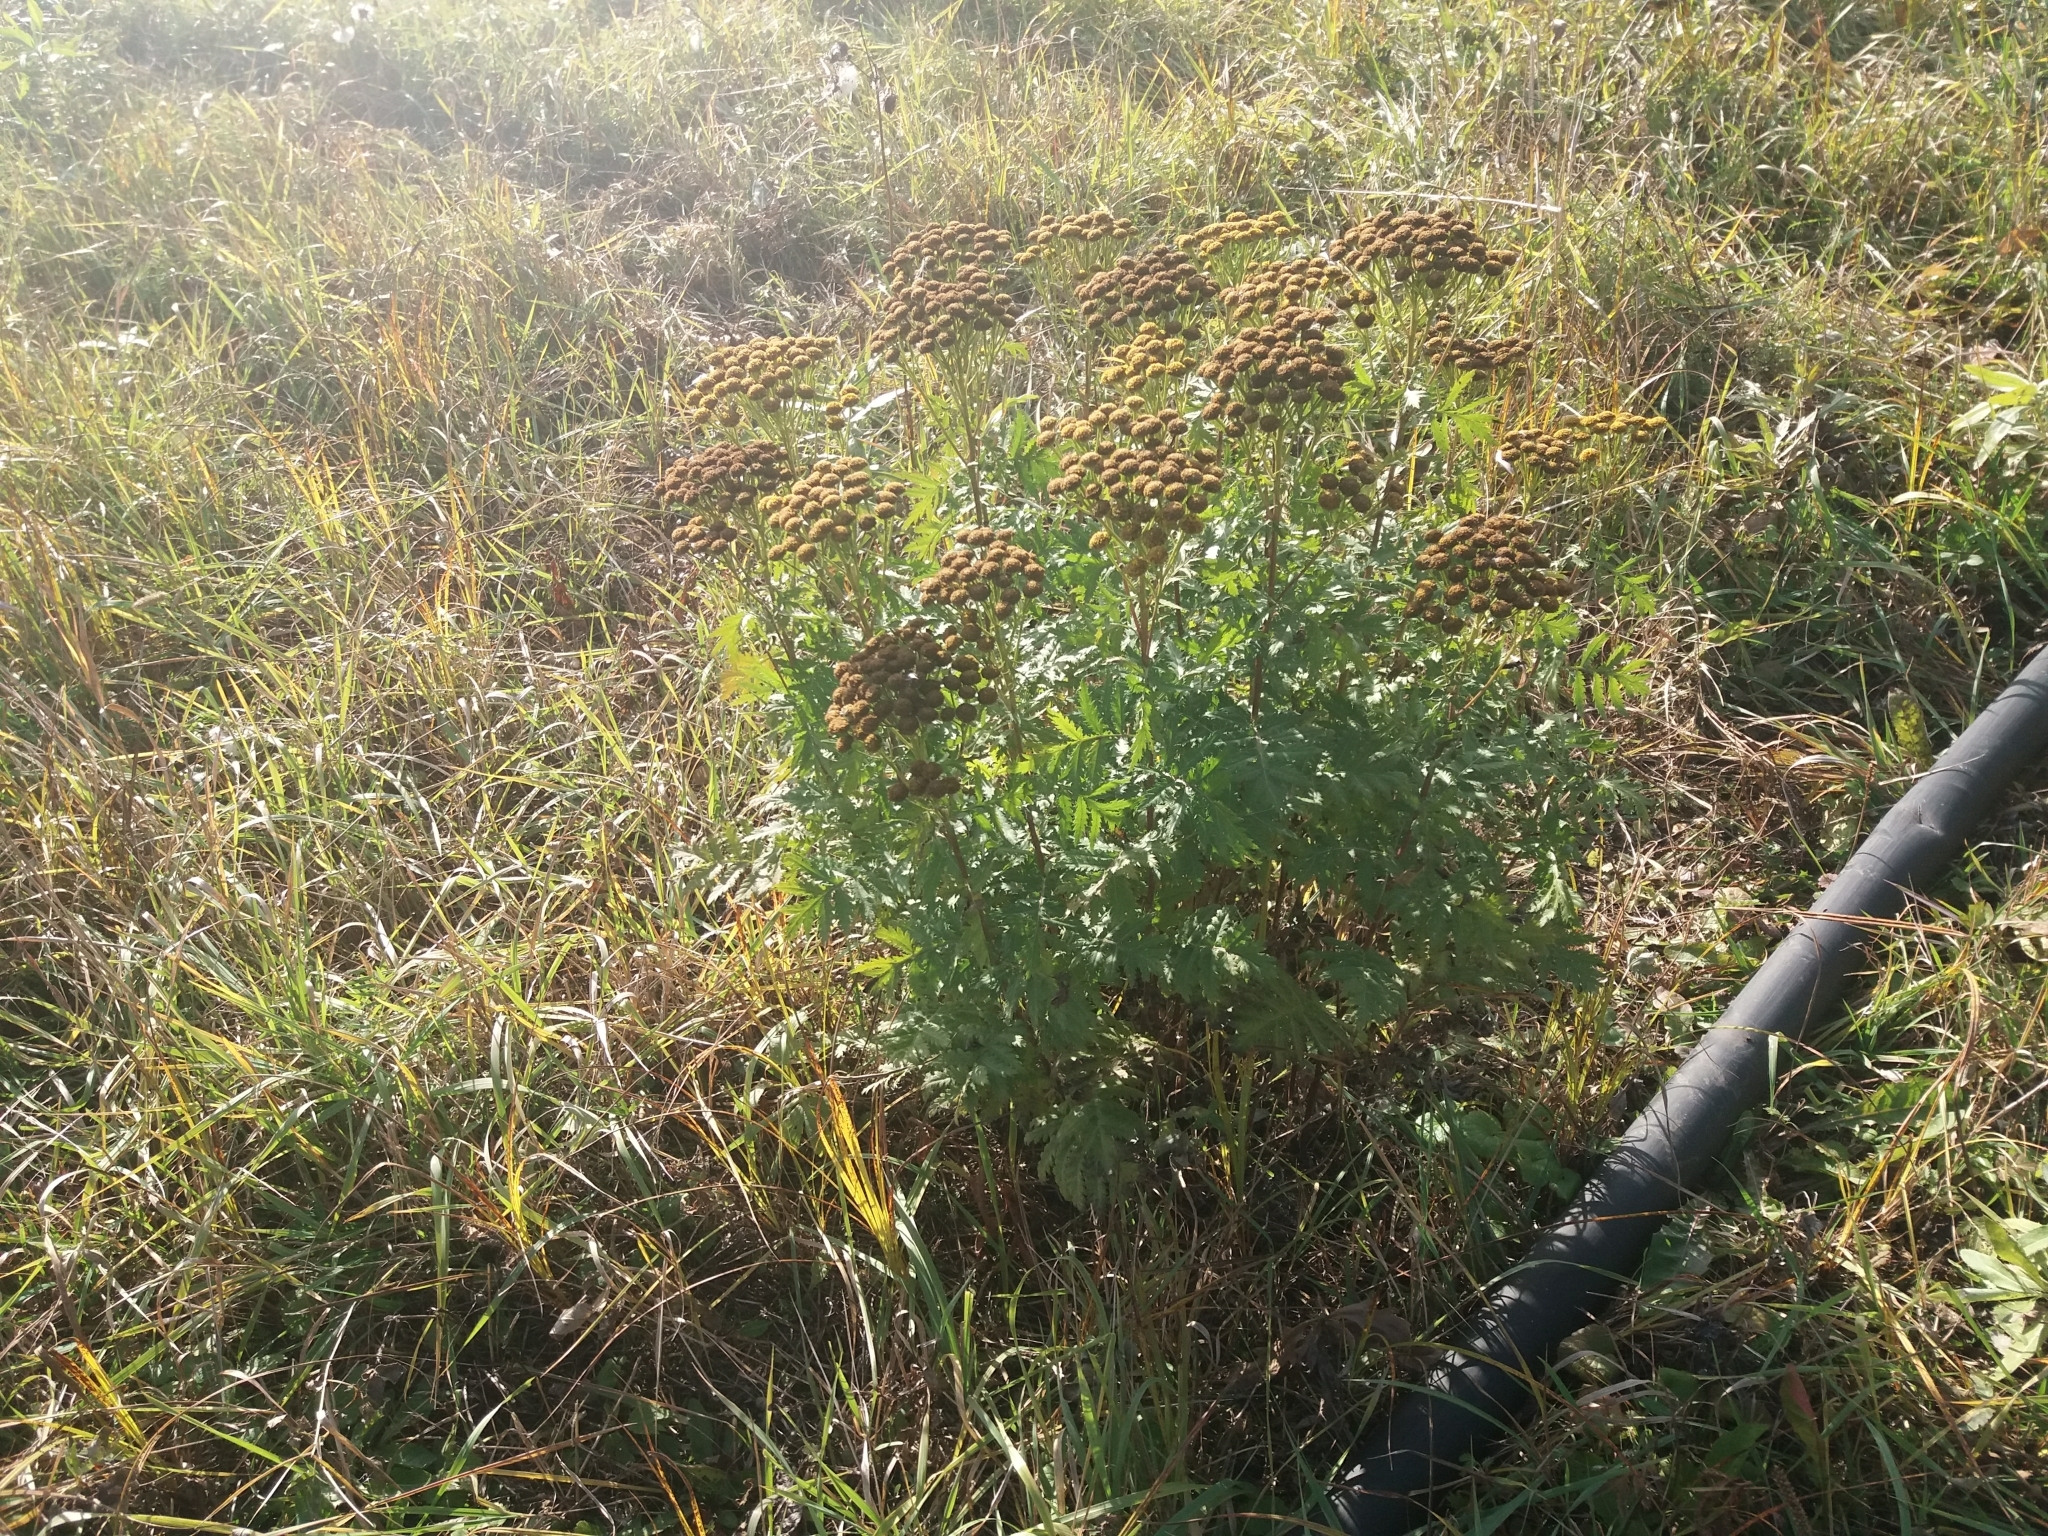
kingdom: Plantae
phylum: Tracheophyta
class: Magnoliopsida
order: Asterales
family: Asteraceae
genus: Tanacetum
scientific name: Tanacetum vulgare
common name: Common tansy
